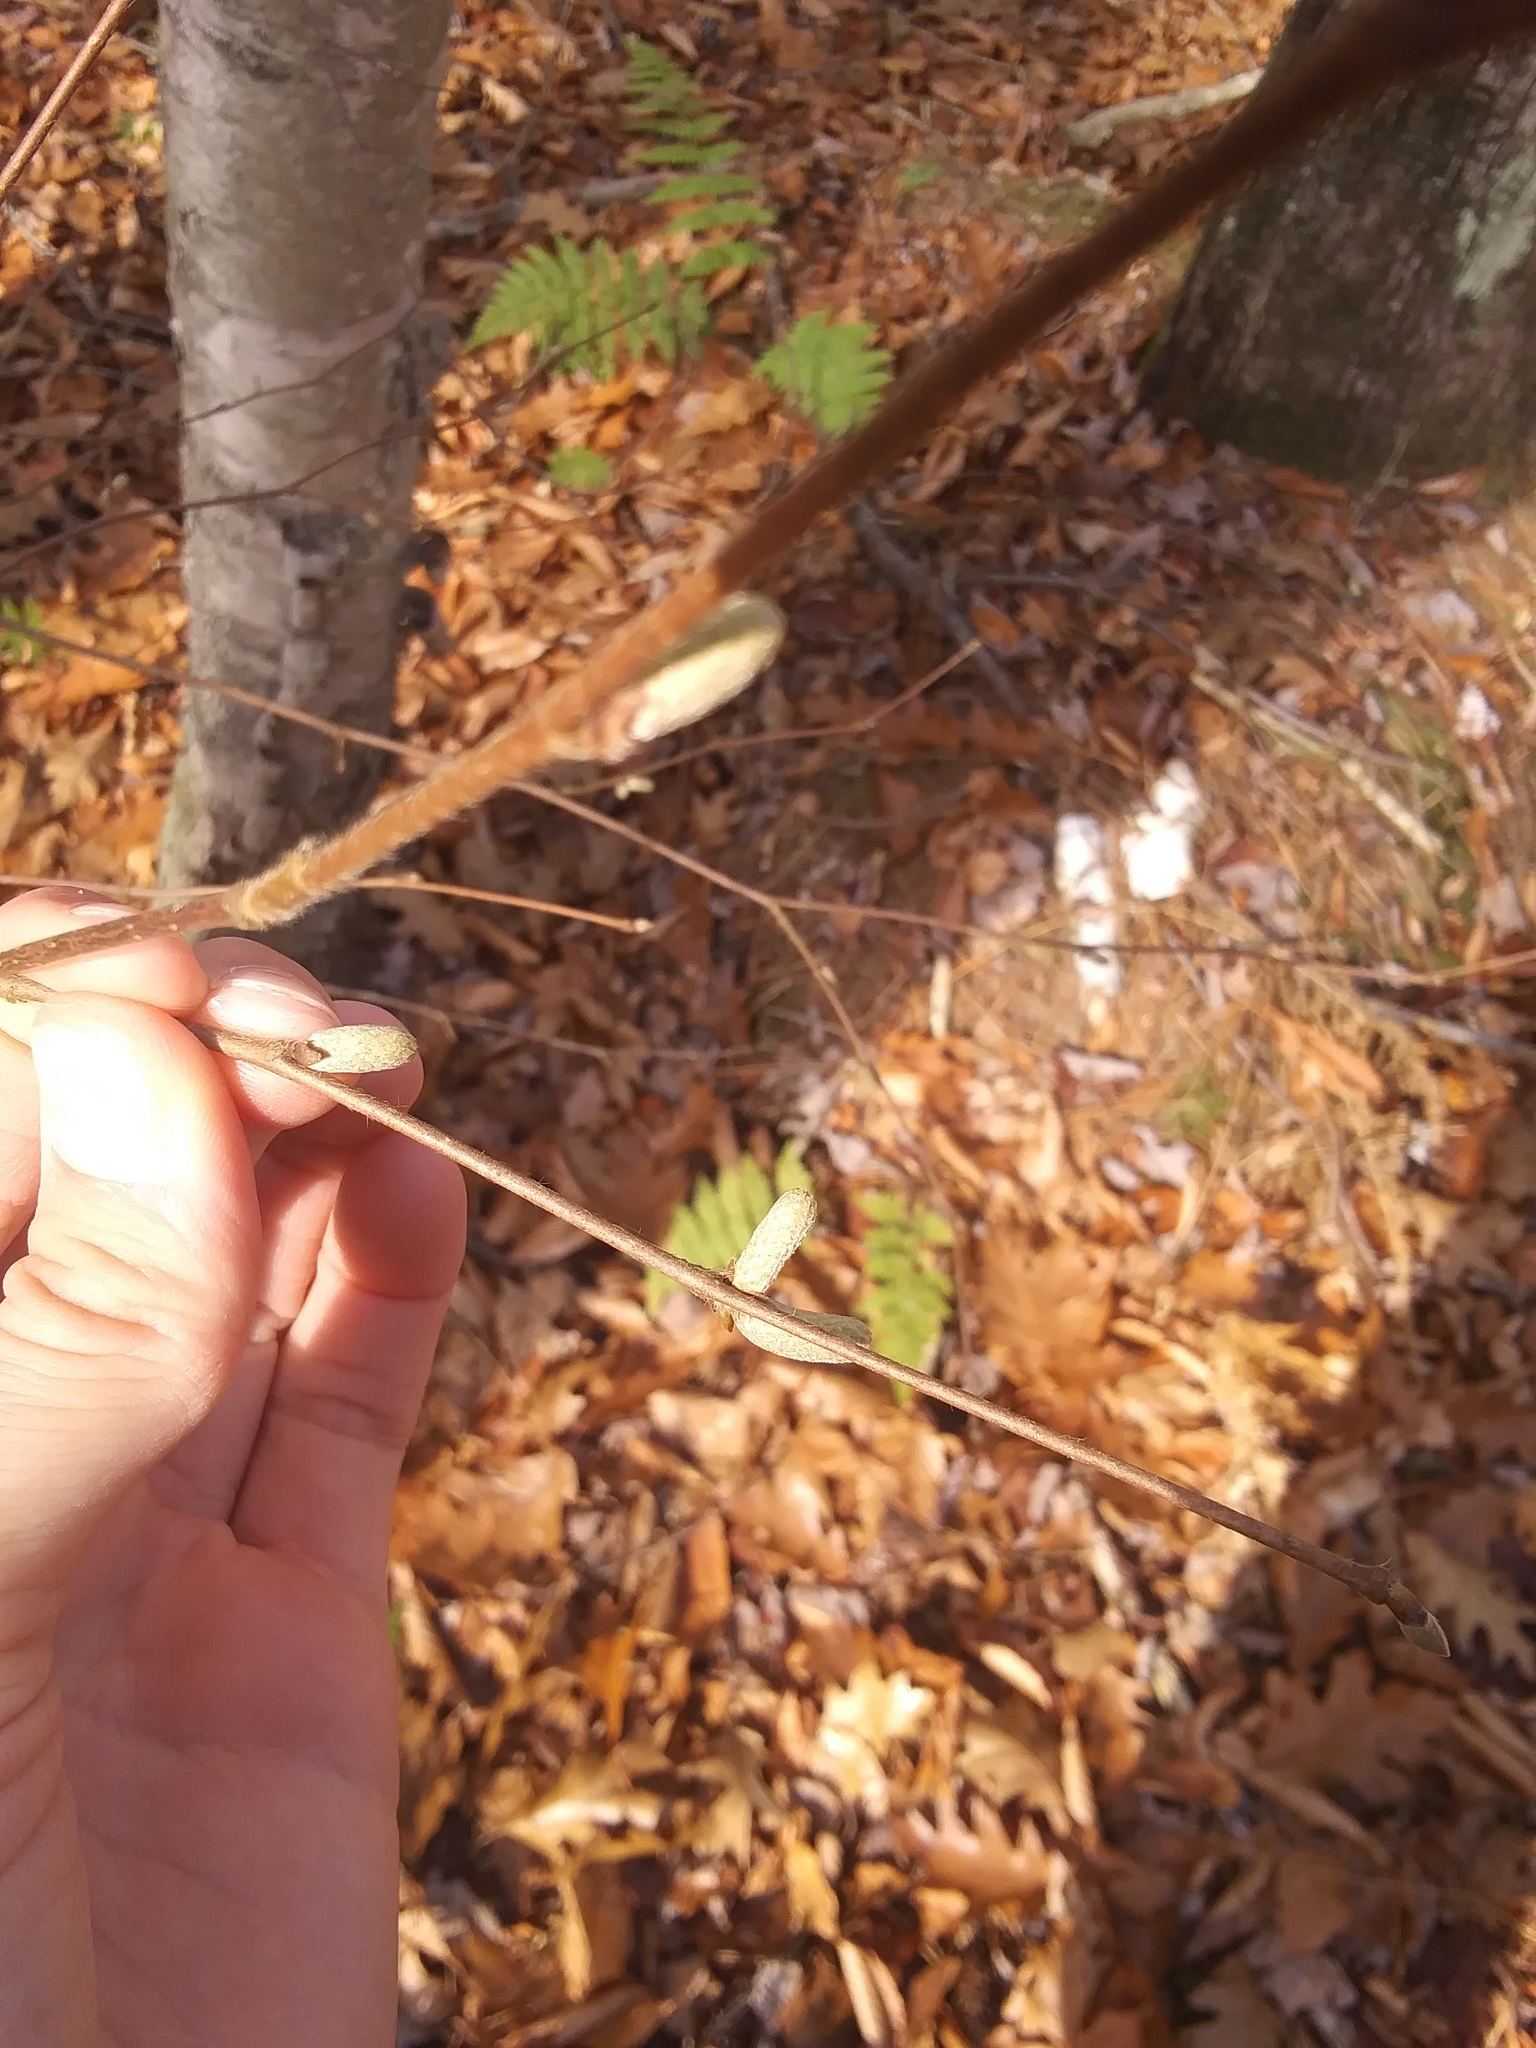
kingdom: Plantae
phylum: Tracheophyta
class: Magnoliopsida
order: Fagales
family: Betulaceae
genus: Corylus
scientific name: Corylus cornuta
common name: Beaked hazel
